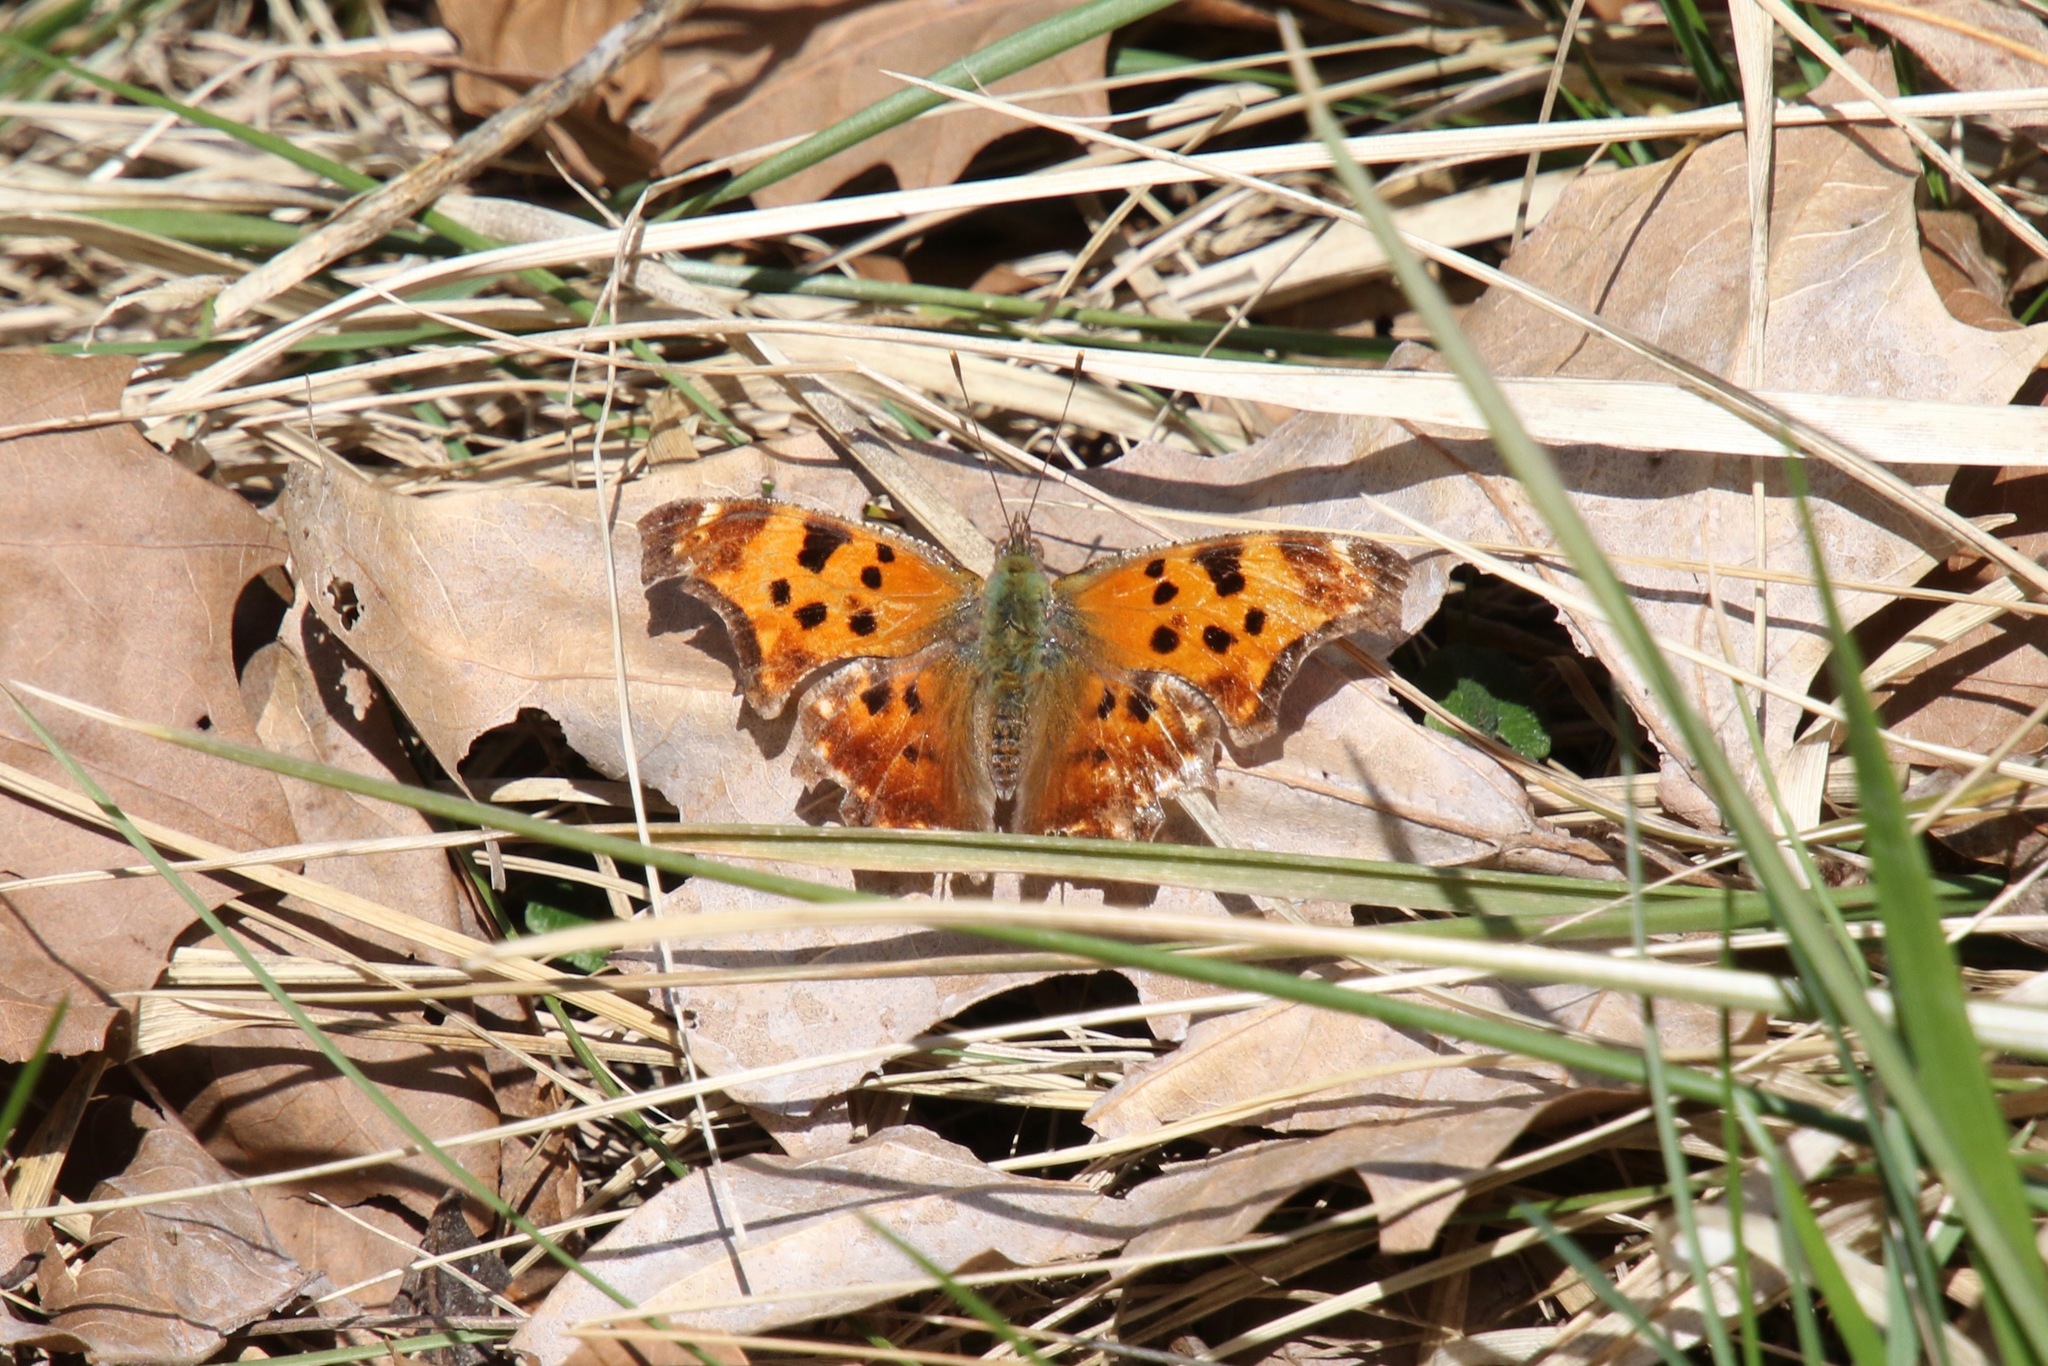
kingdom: Animalia
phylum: Arthropoda
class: Insecta
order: Lepidoptera
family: Nymphalidae
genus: Polygonia
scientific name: Polygonia comma
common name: Eastern comma
